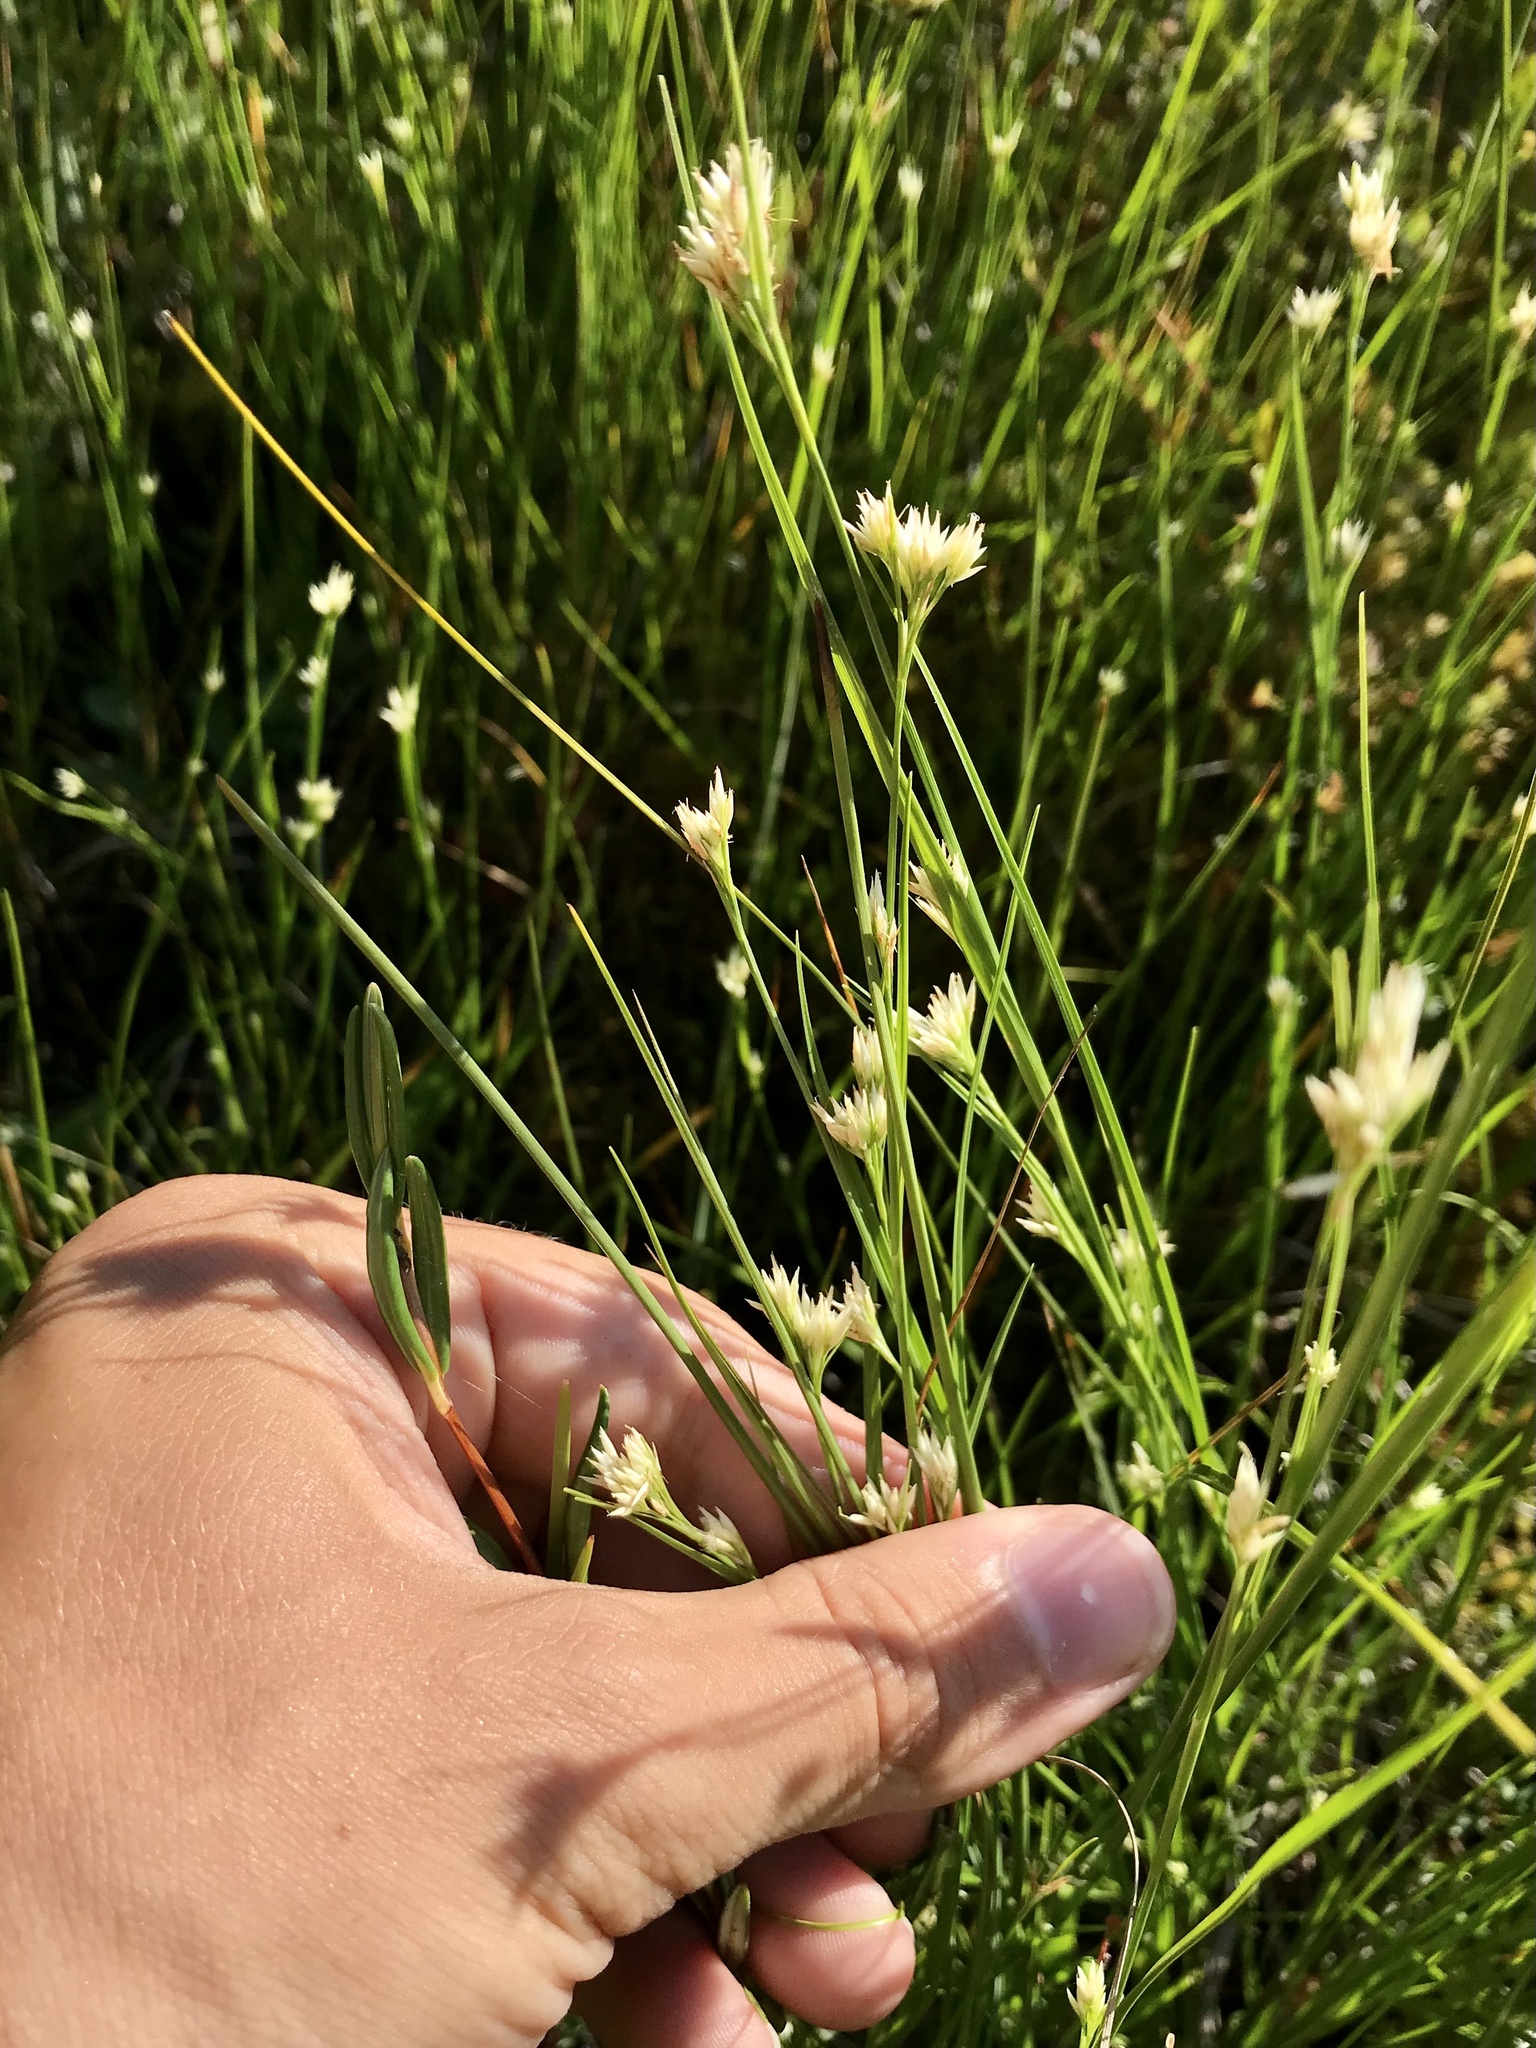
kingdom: Plantae
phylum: Tracheophyta
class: Liliopsida
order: Poales
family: Cyperaceae
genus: Rhynchospora
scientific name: Rhynchospora alba
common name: White beak-sedge
